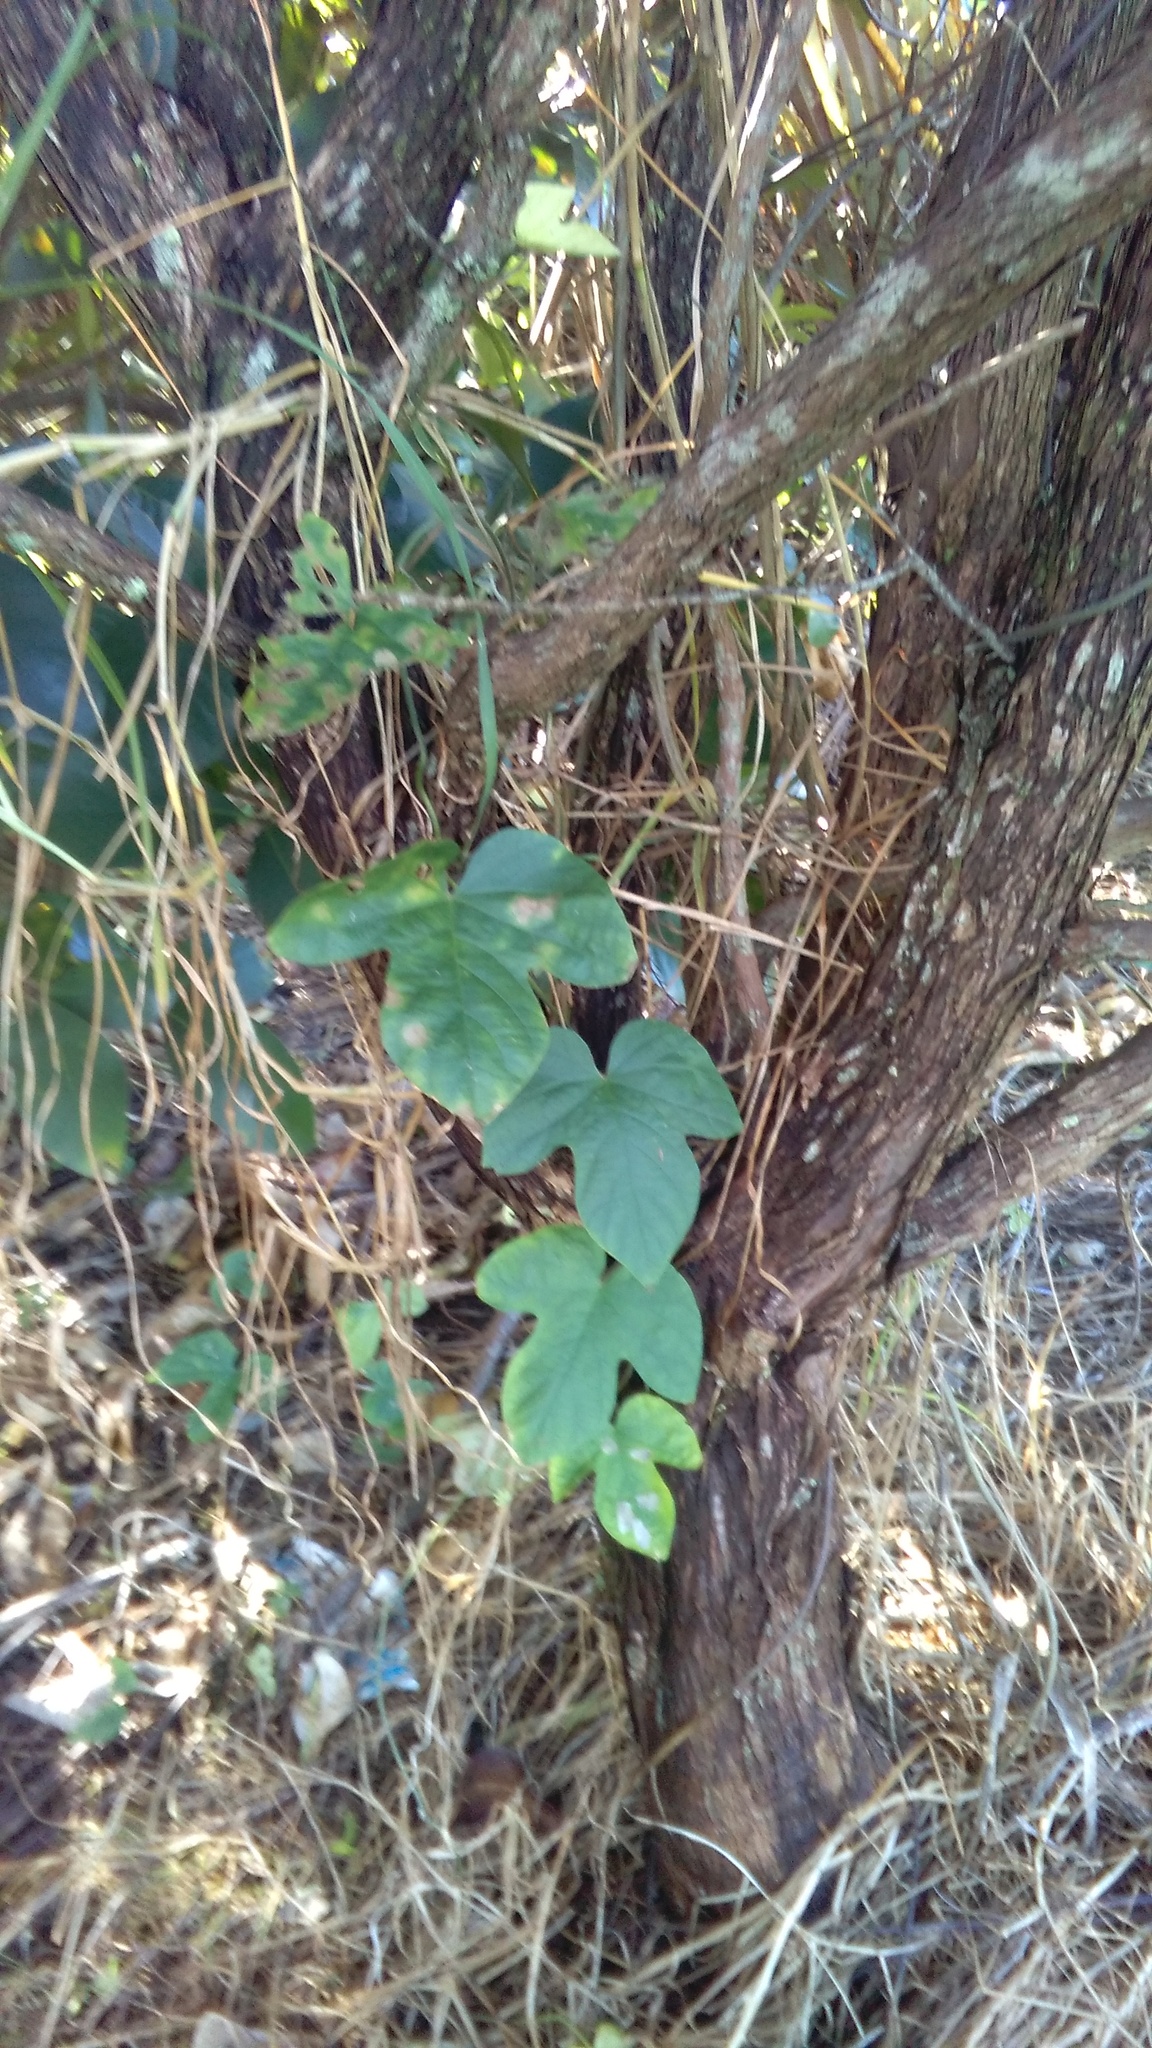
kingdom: Plantae
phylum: Tracheophyta
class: Magnoliopsida
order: Solanales
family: Convolvulaceae
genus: Ipomoea
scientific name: Ipomoea indica
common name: Blue dawnflower
